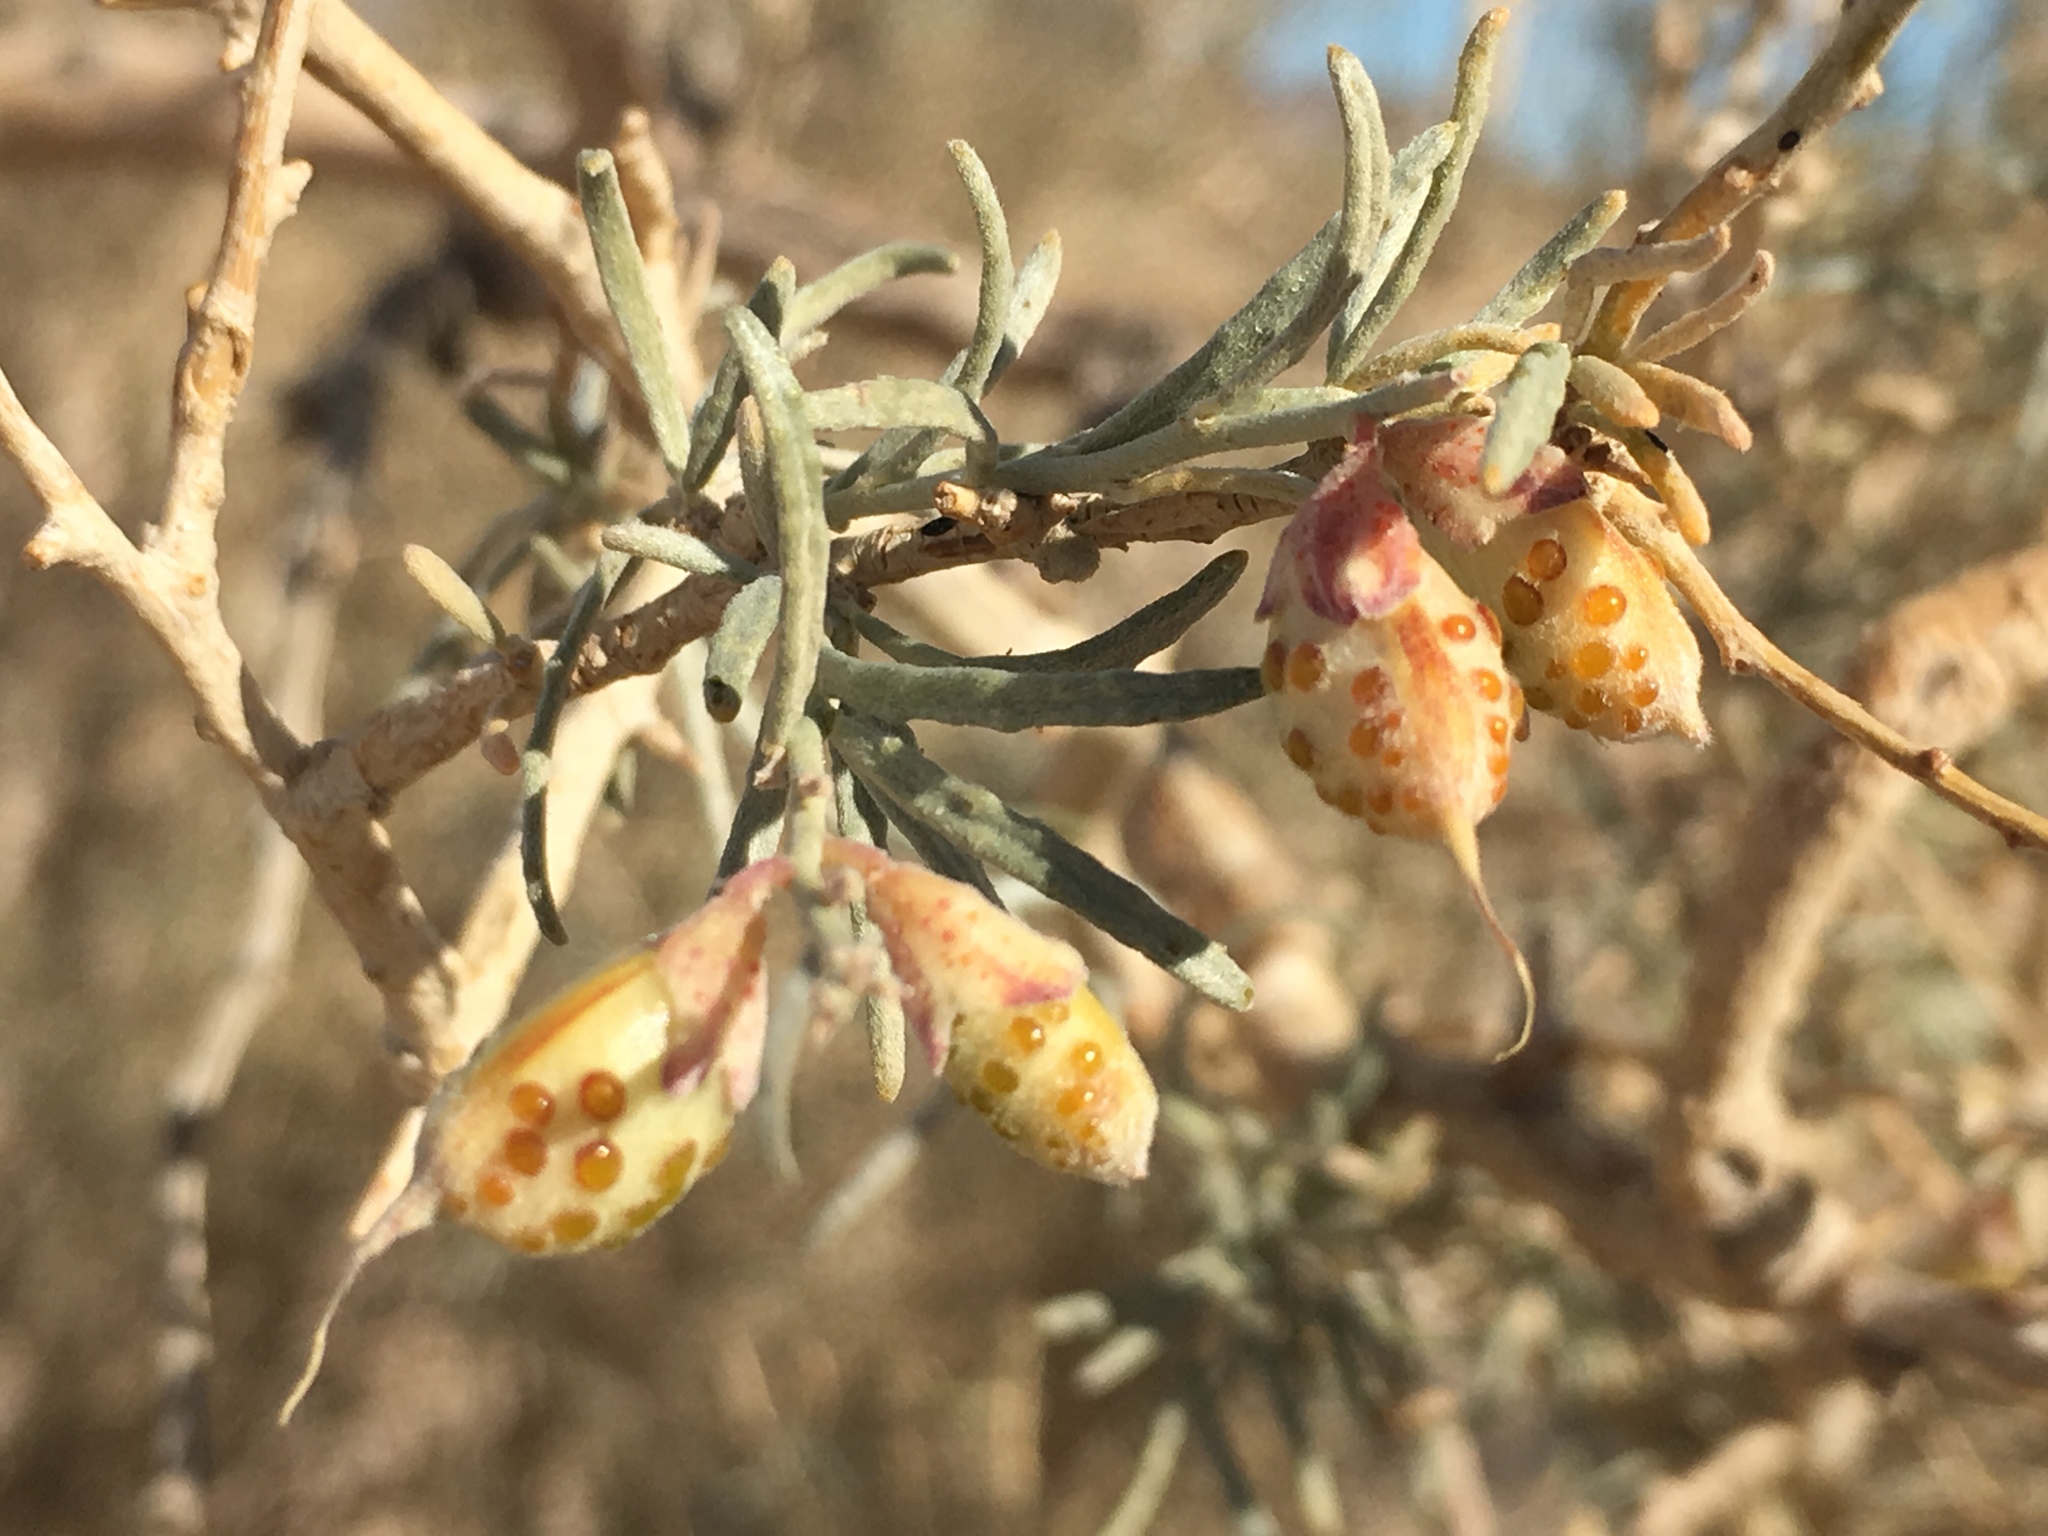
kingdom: Plantae
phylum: Tracheophyta
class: Magnoliopsida
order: Fabales
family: Fabaceae
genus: Psorothamnus
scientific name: Psorothamnus schottii
